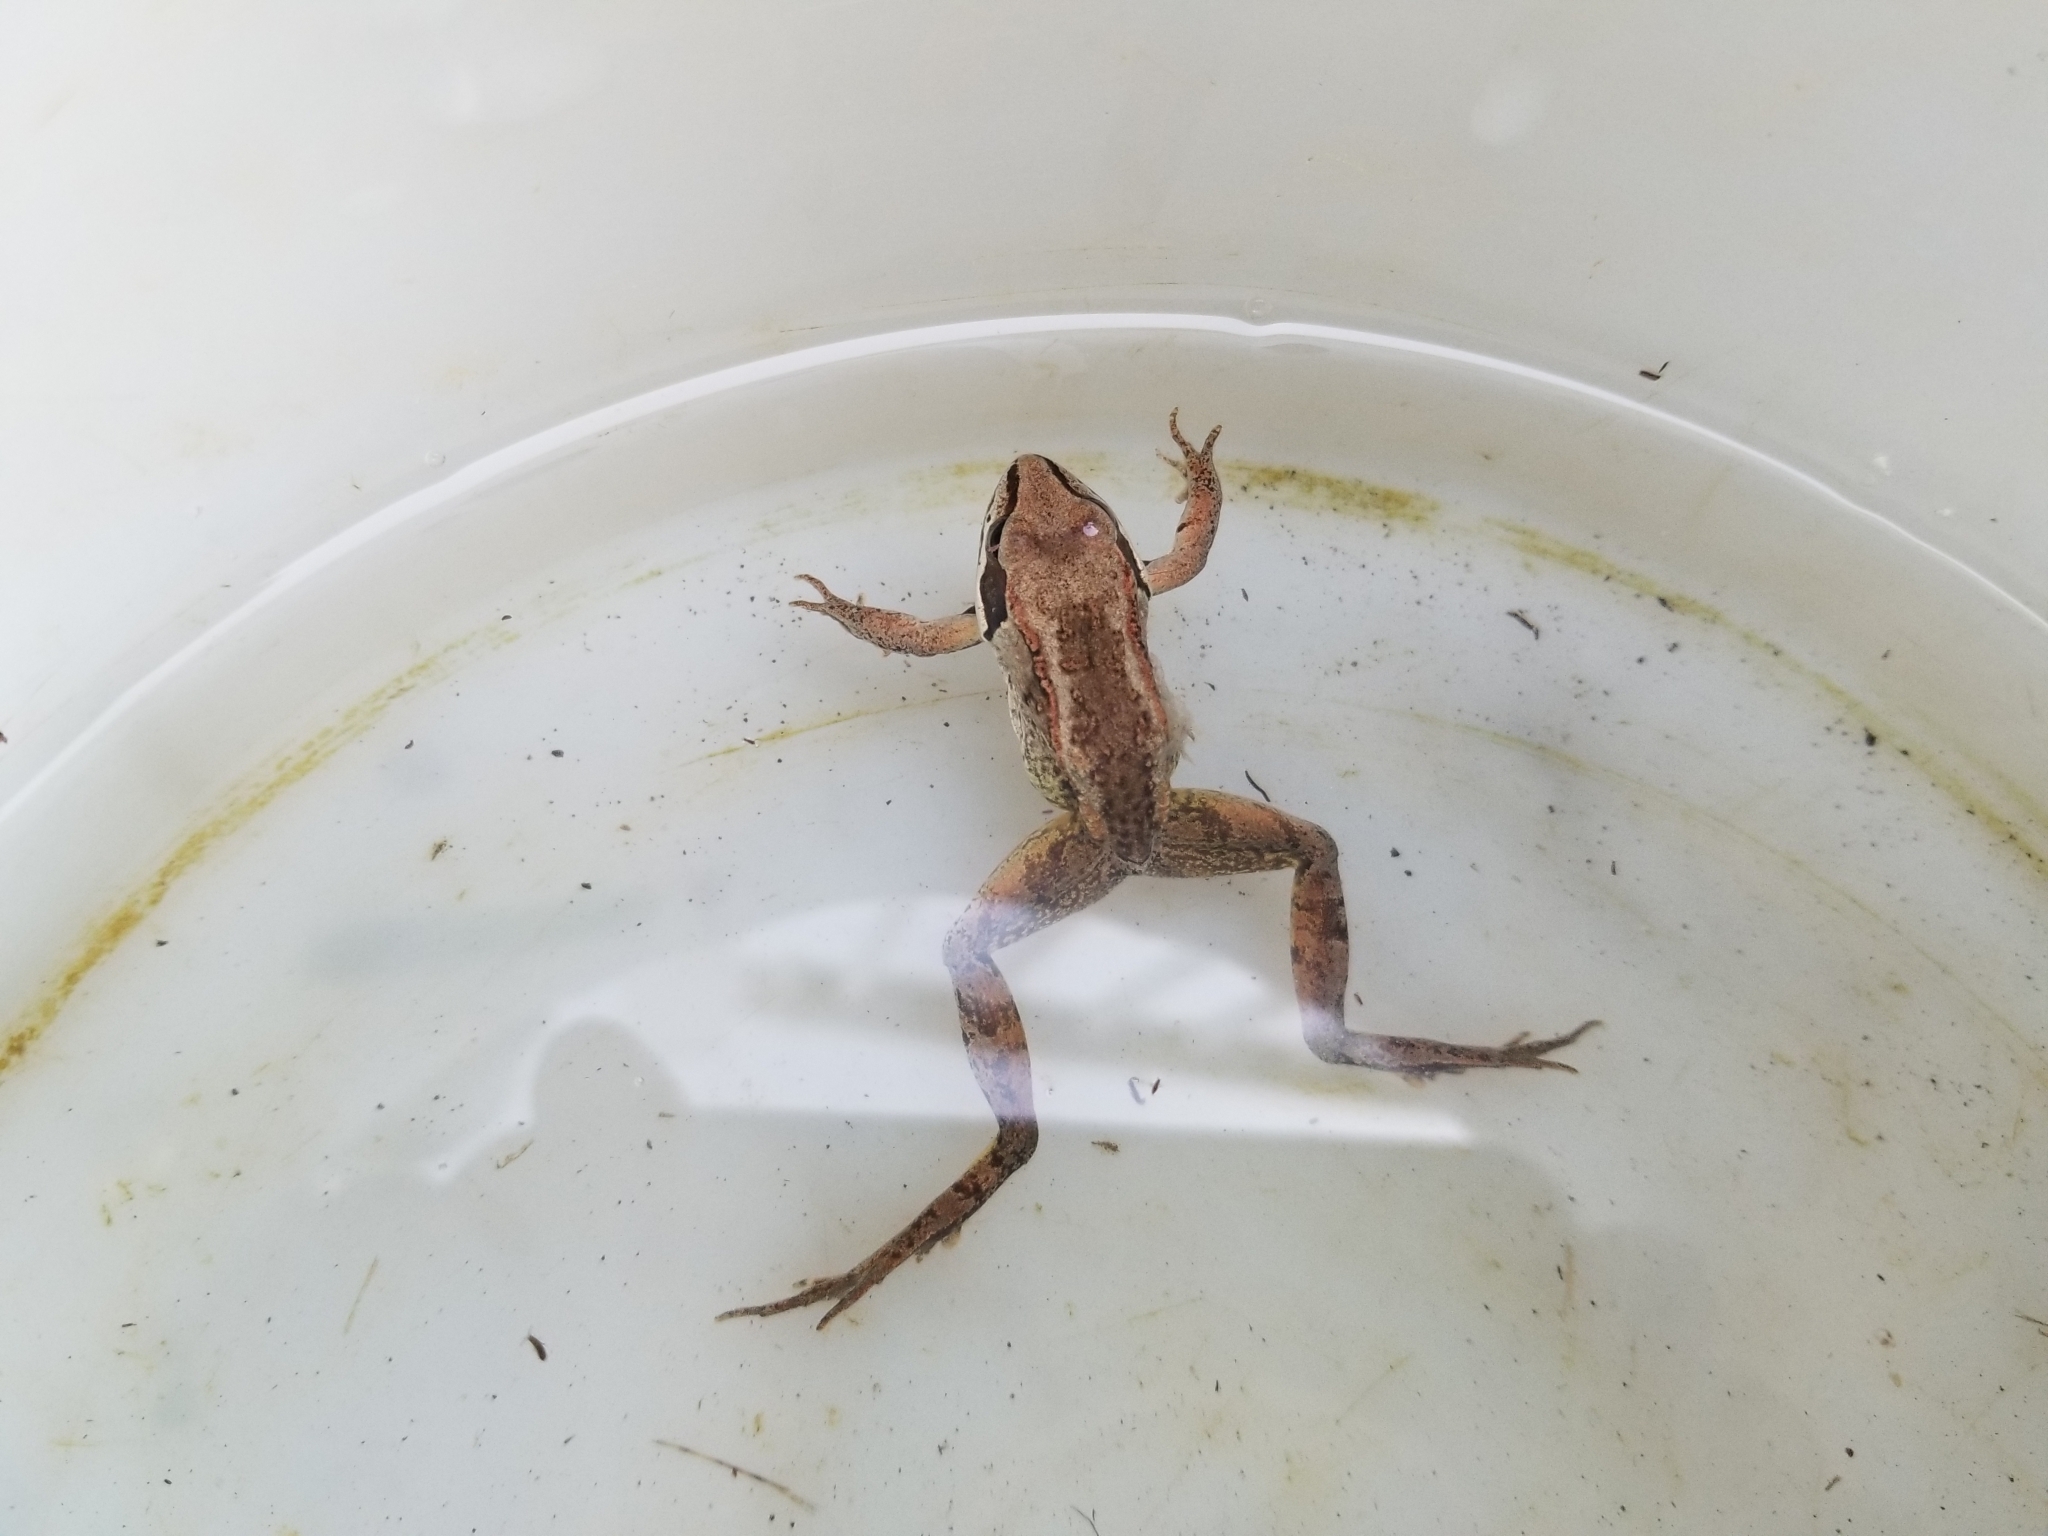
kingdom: Animalia
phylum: Chordata
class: Amphibia
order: Anura
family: Ranidae
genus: Lithobates
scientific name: Lithobates sylvaticus
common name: Wood frog
